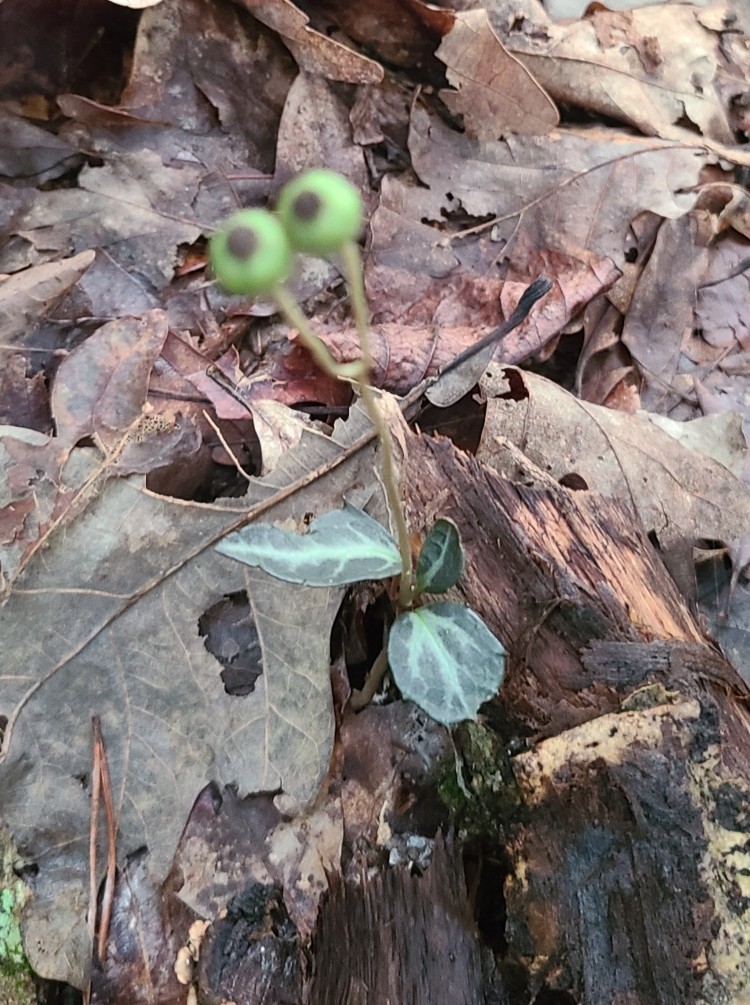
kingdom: Plantae
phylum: Tracheophyta
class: Magnoliopsida
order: Ericales
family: Ericaceae
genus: Chimaphila
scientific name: Chimaphila maculata
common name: Spotted pipsissewa
